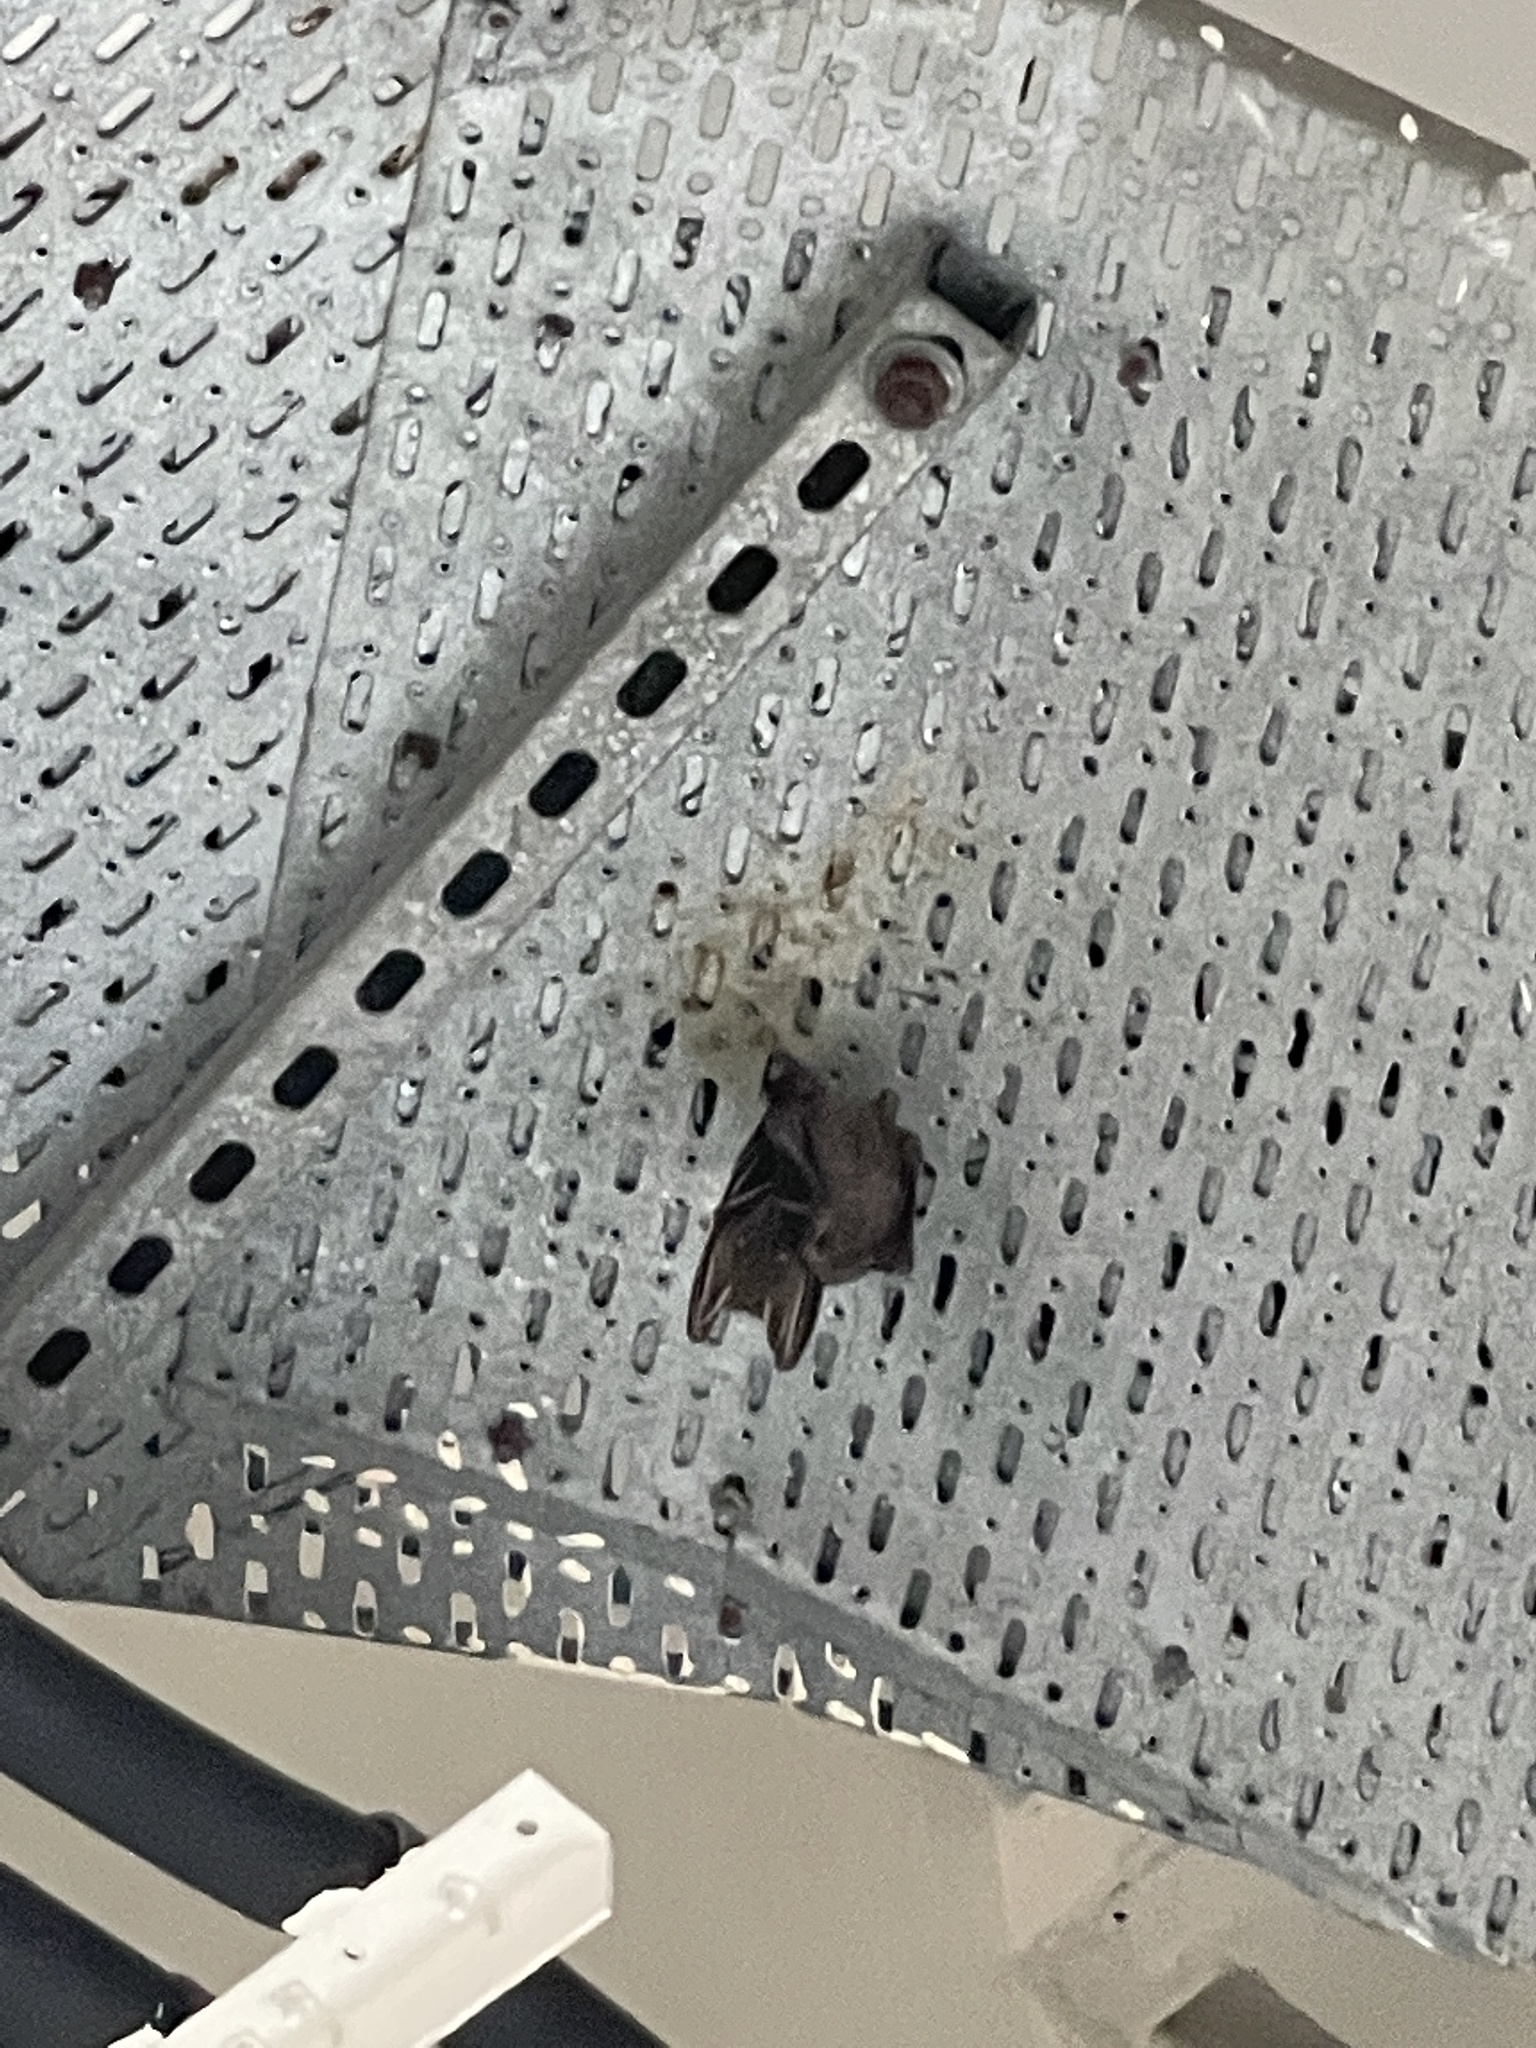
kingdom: Animalia
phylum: Chordata
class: Mammalia
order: Chiroptera
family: Pteropodidae
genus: Cynopterus
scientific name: Cynopterus sphinx
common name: Greater short-nosed fruit bat
